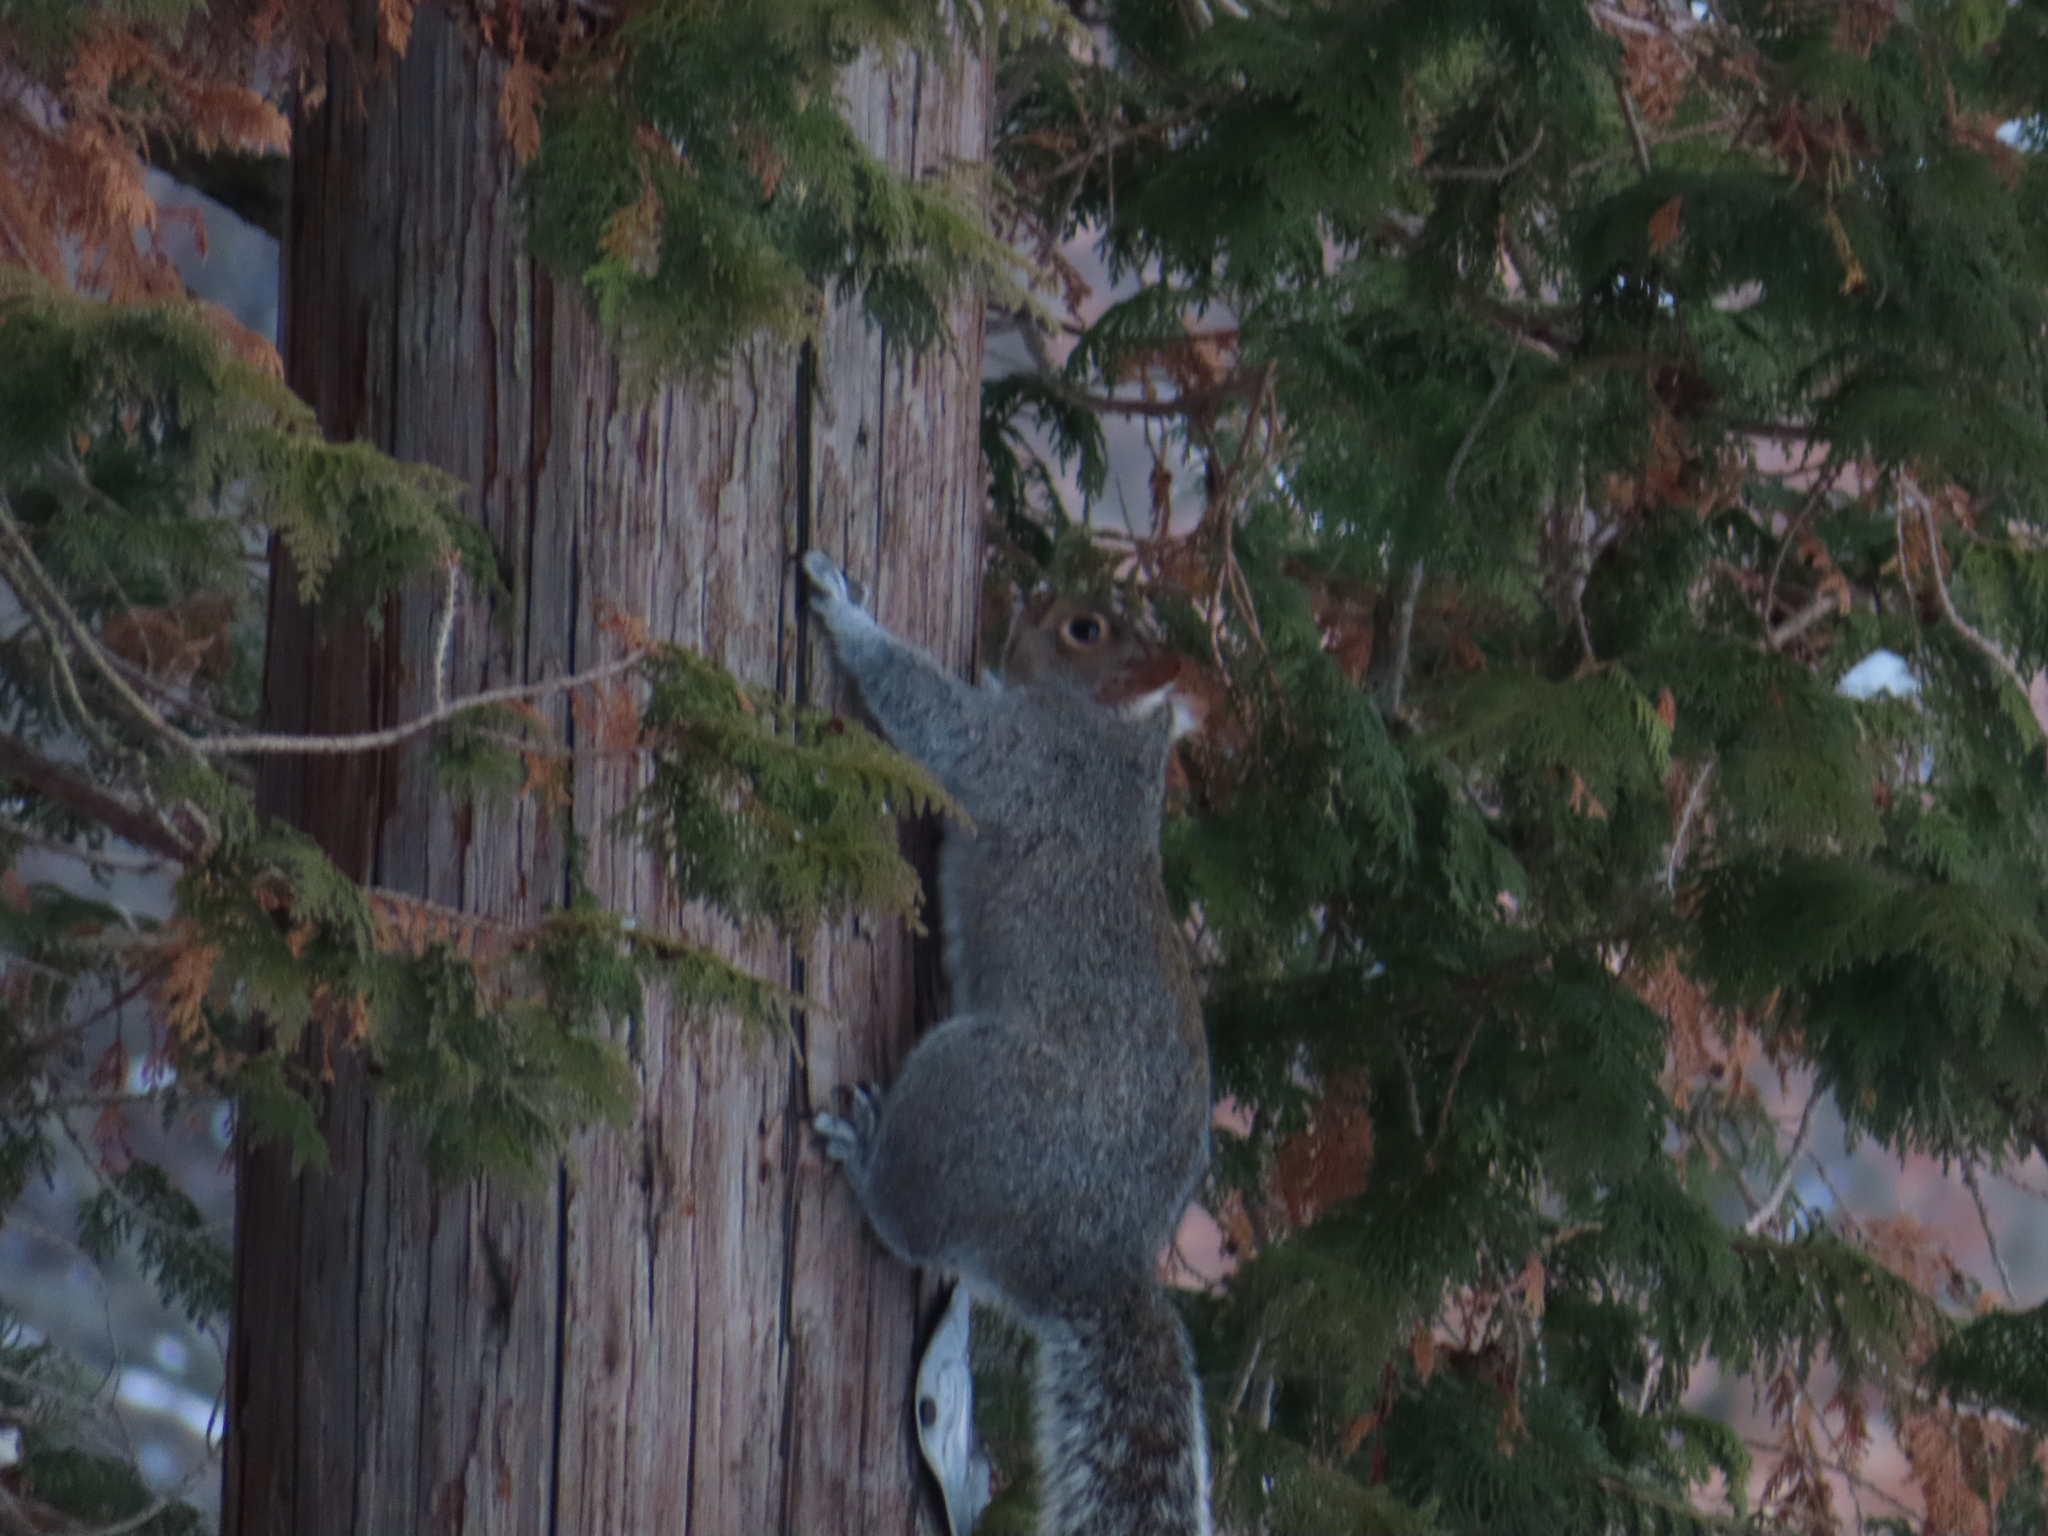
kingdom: Animalia
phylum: Chordata
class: Mammalia
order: Rodentia
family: Sciuridae
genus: Sciurus
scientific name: Sciurus carolinensis
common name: Eastern gray squirrel
